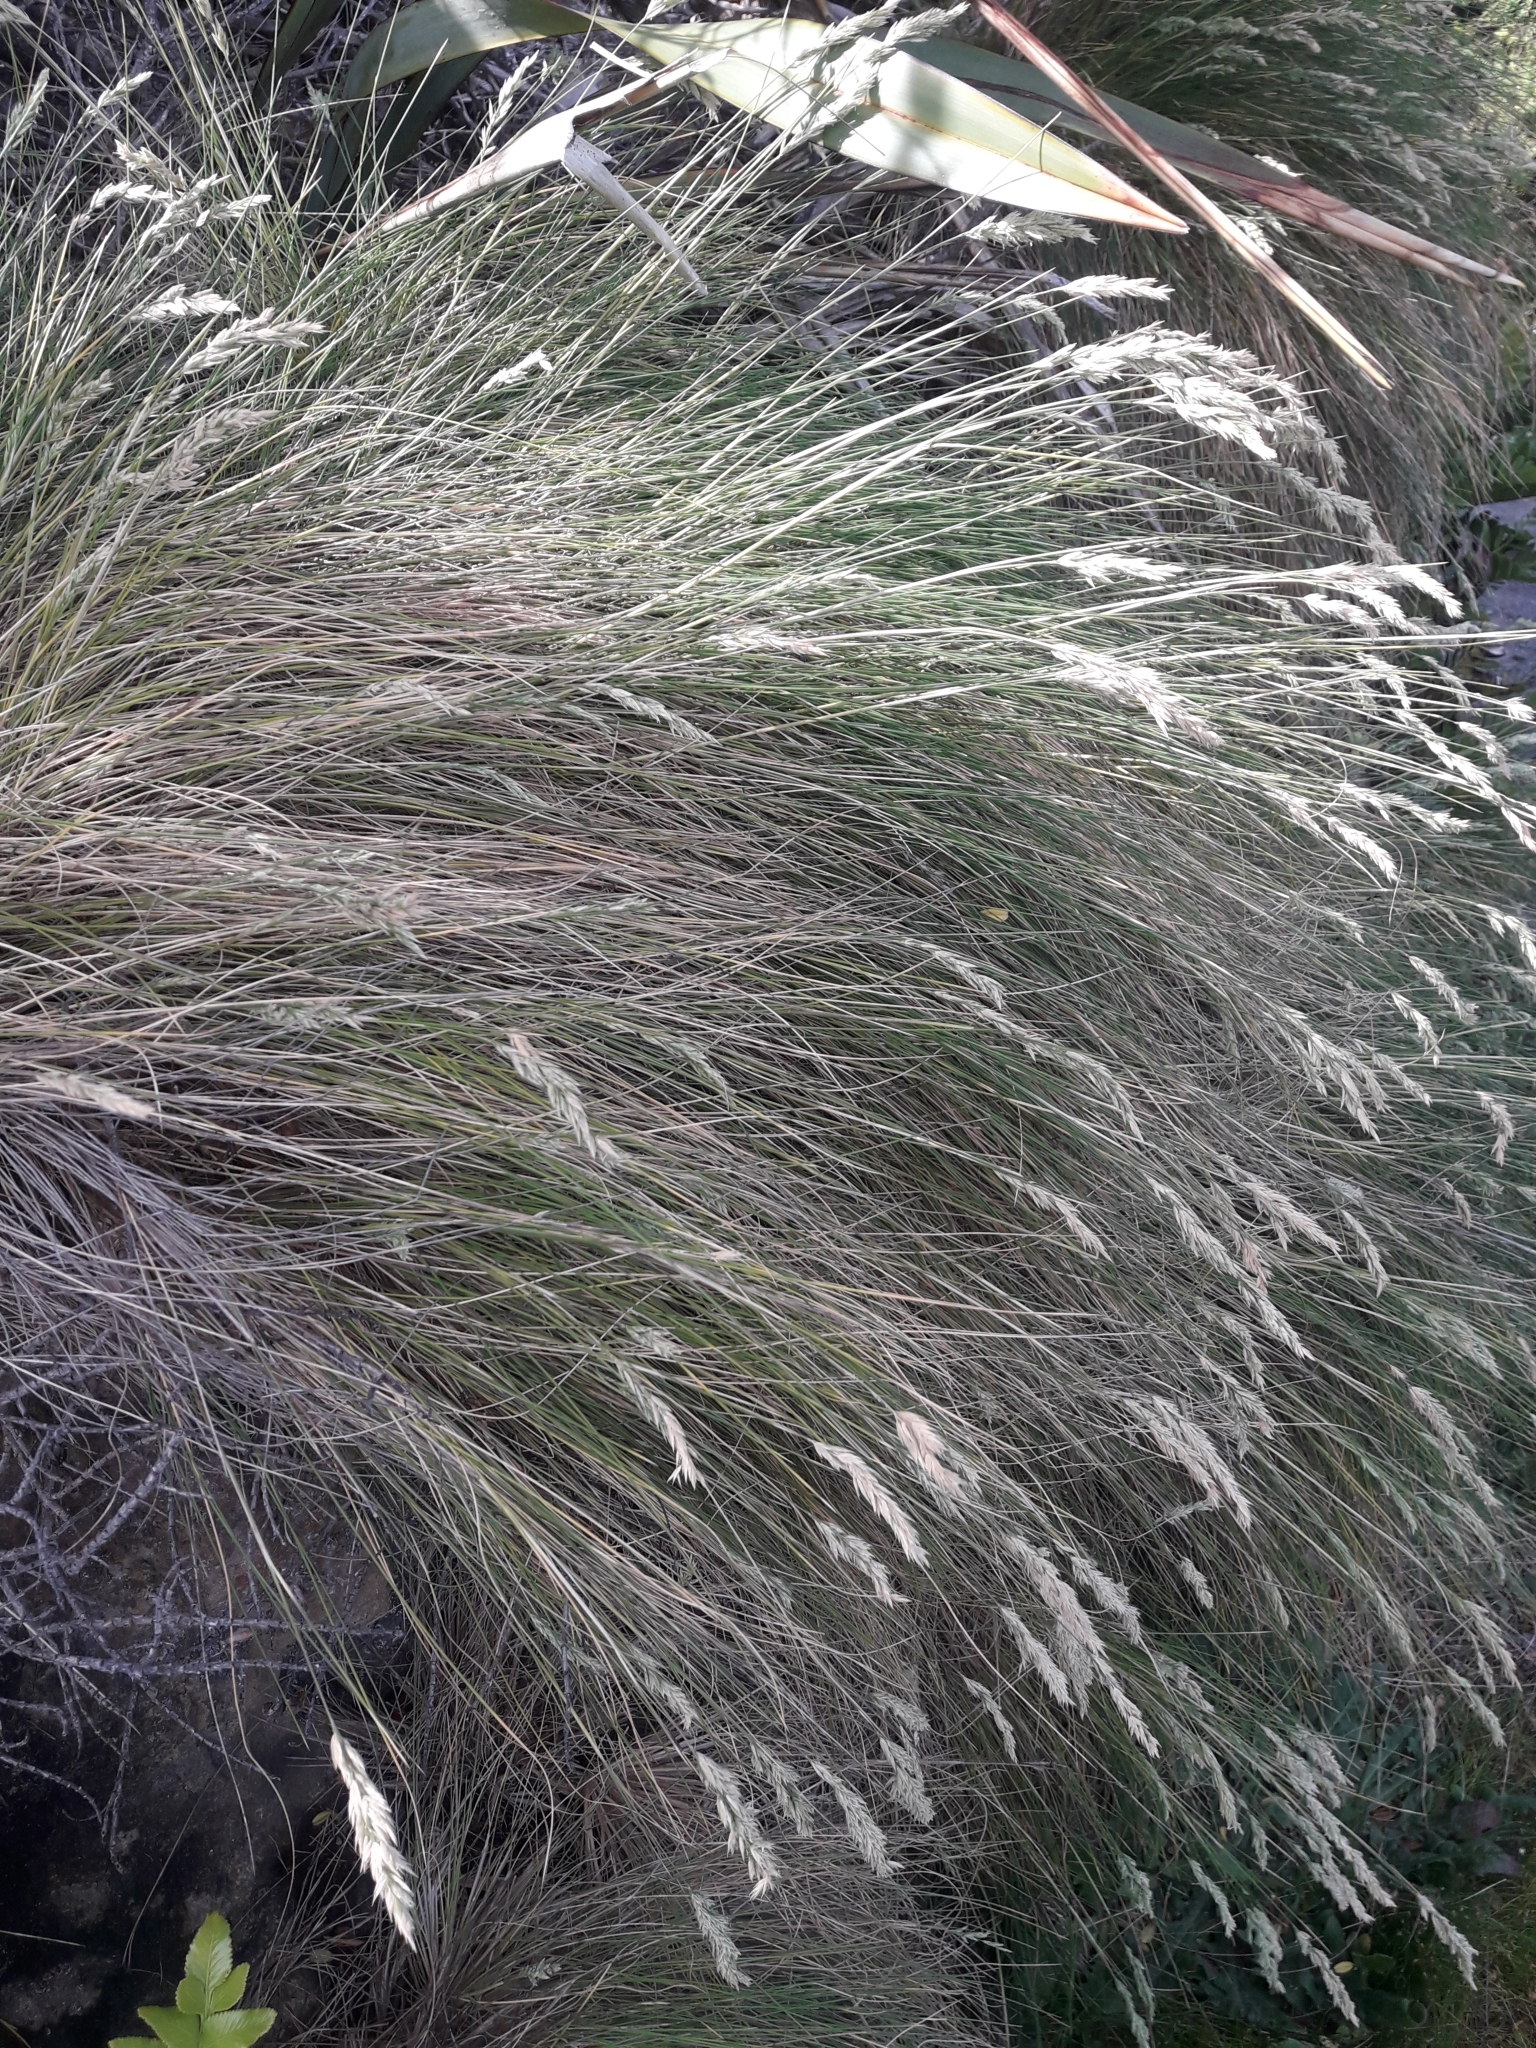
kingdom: Plantae
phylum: Tracheophyta
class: Liliopsida
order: Poales
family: Poaceae
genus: Poa
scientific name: Poa astonii
